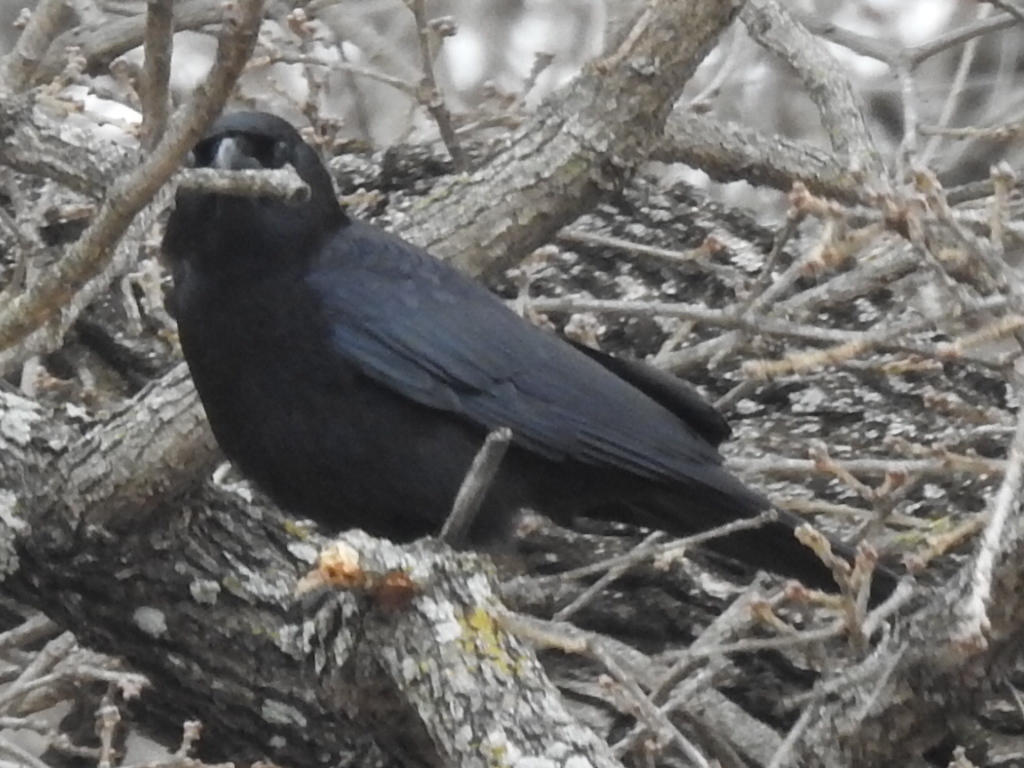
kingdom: Animalia
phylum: Chordata
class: Aves
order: Passeriformes
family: Corvidae
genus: Corvus
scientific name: Corvus brachyrhynchos
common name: American crow
